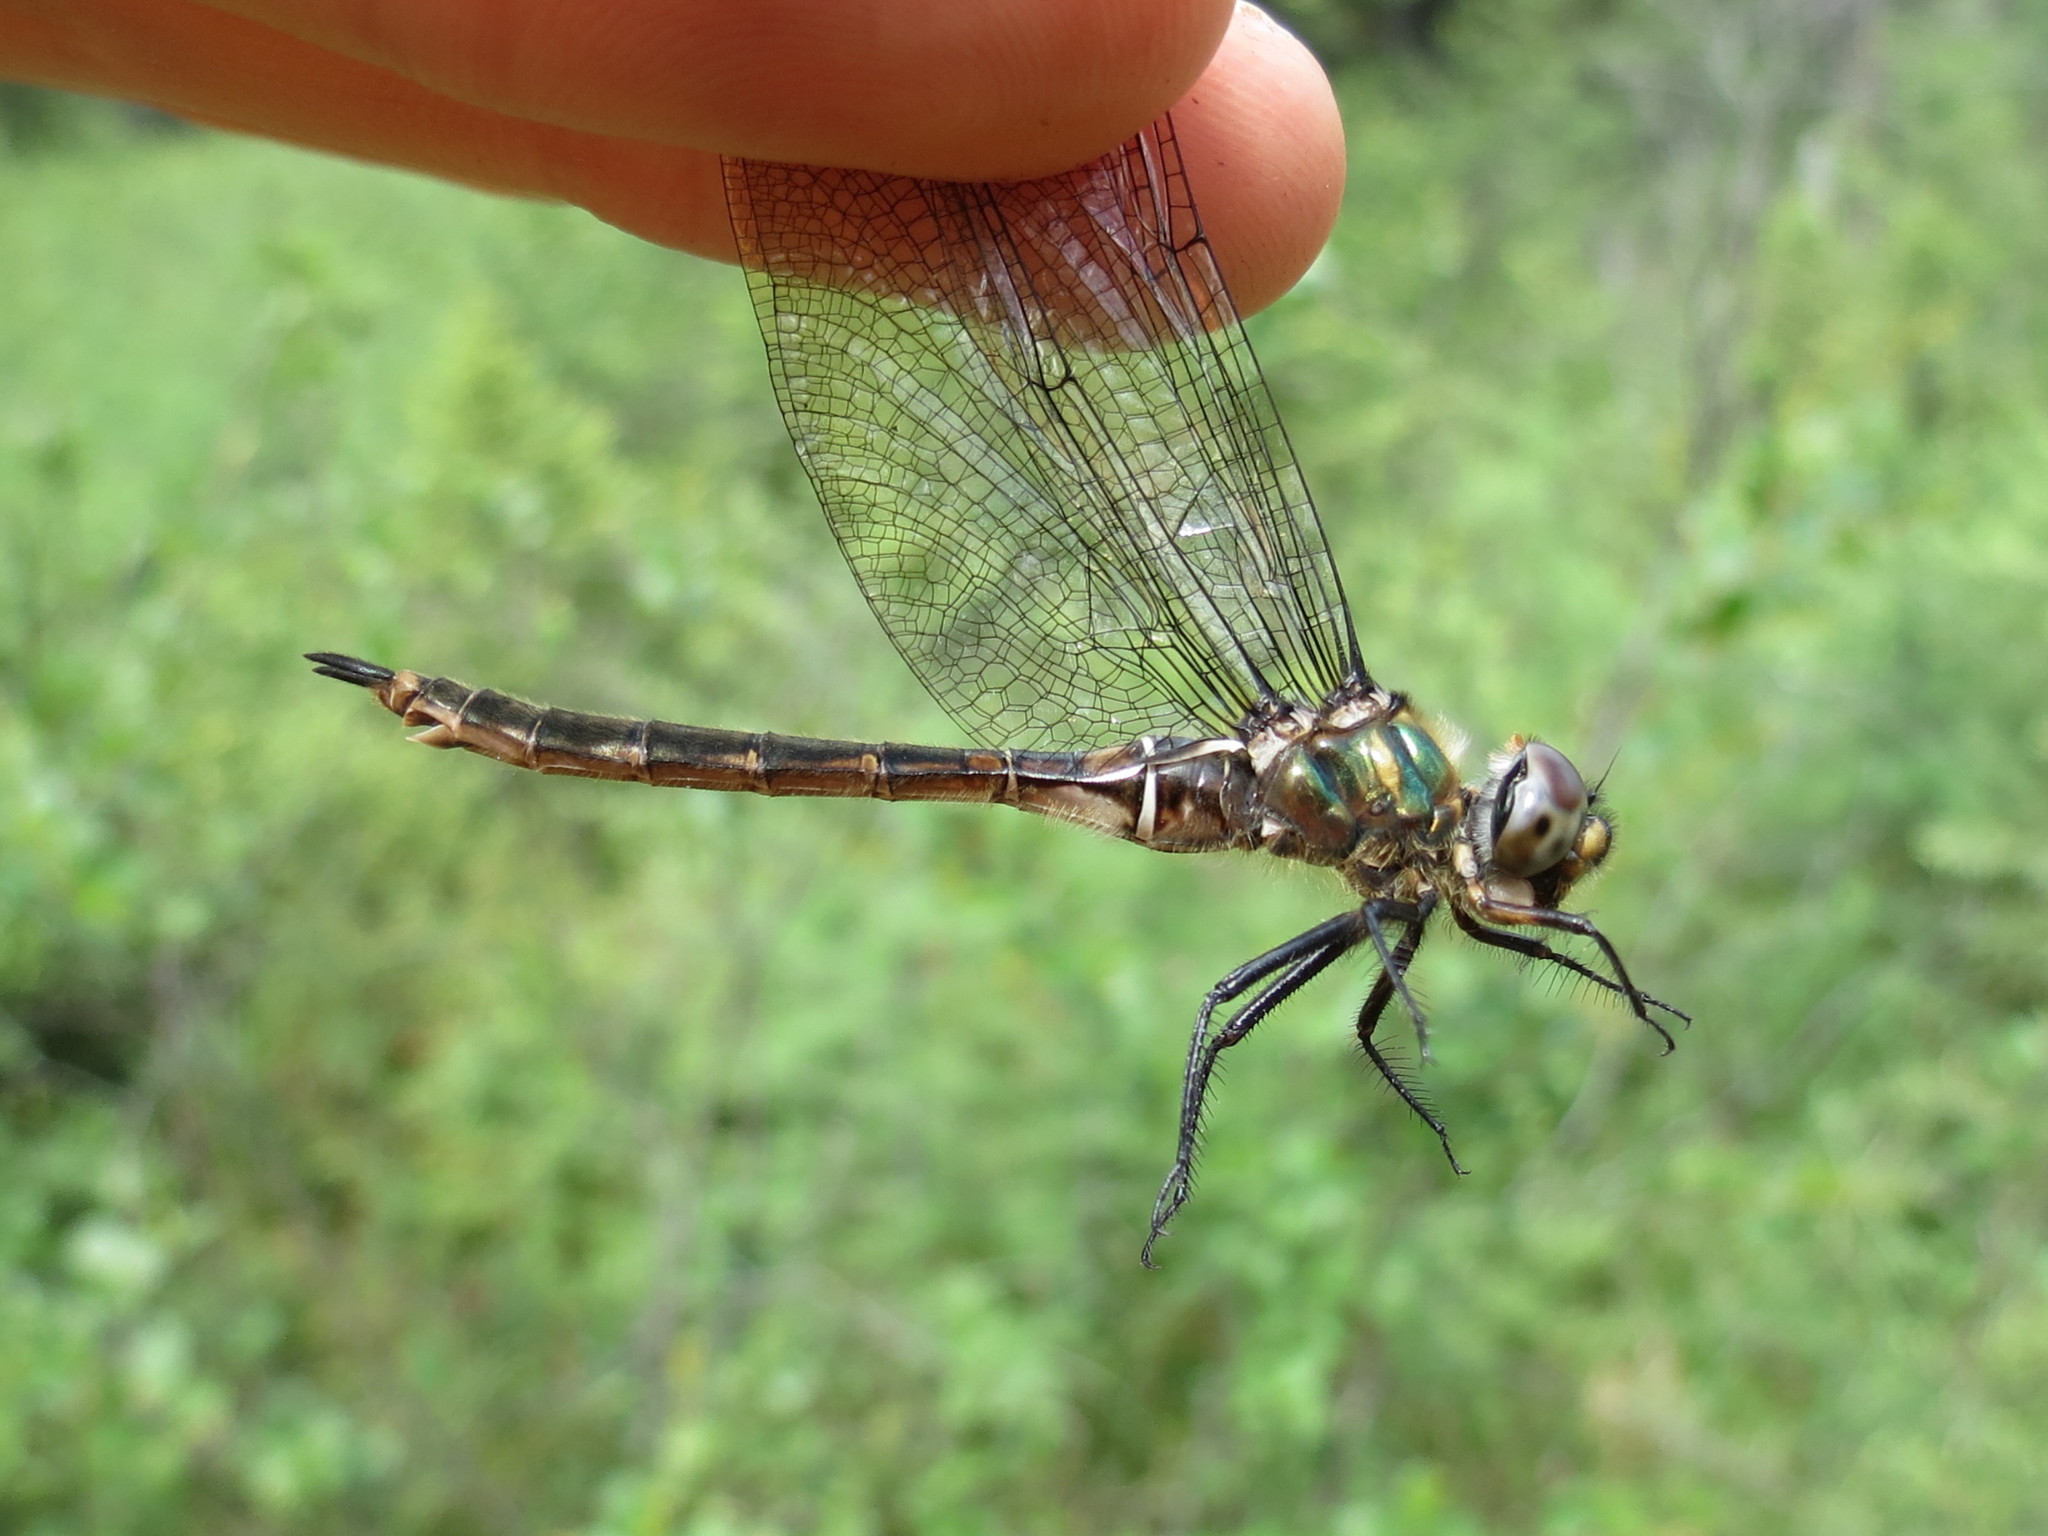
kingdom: Animalia
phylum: Arthropoda
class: Insecta
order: Odonata
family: Corduliidae
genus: Somatochlora
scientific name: Somatochlora brevicincta
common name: Quebec emerald
